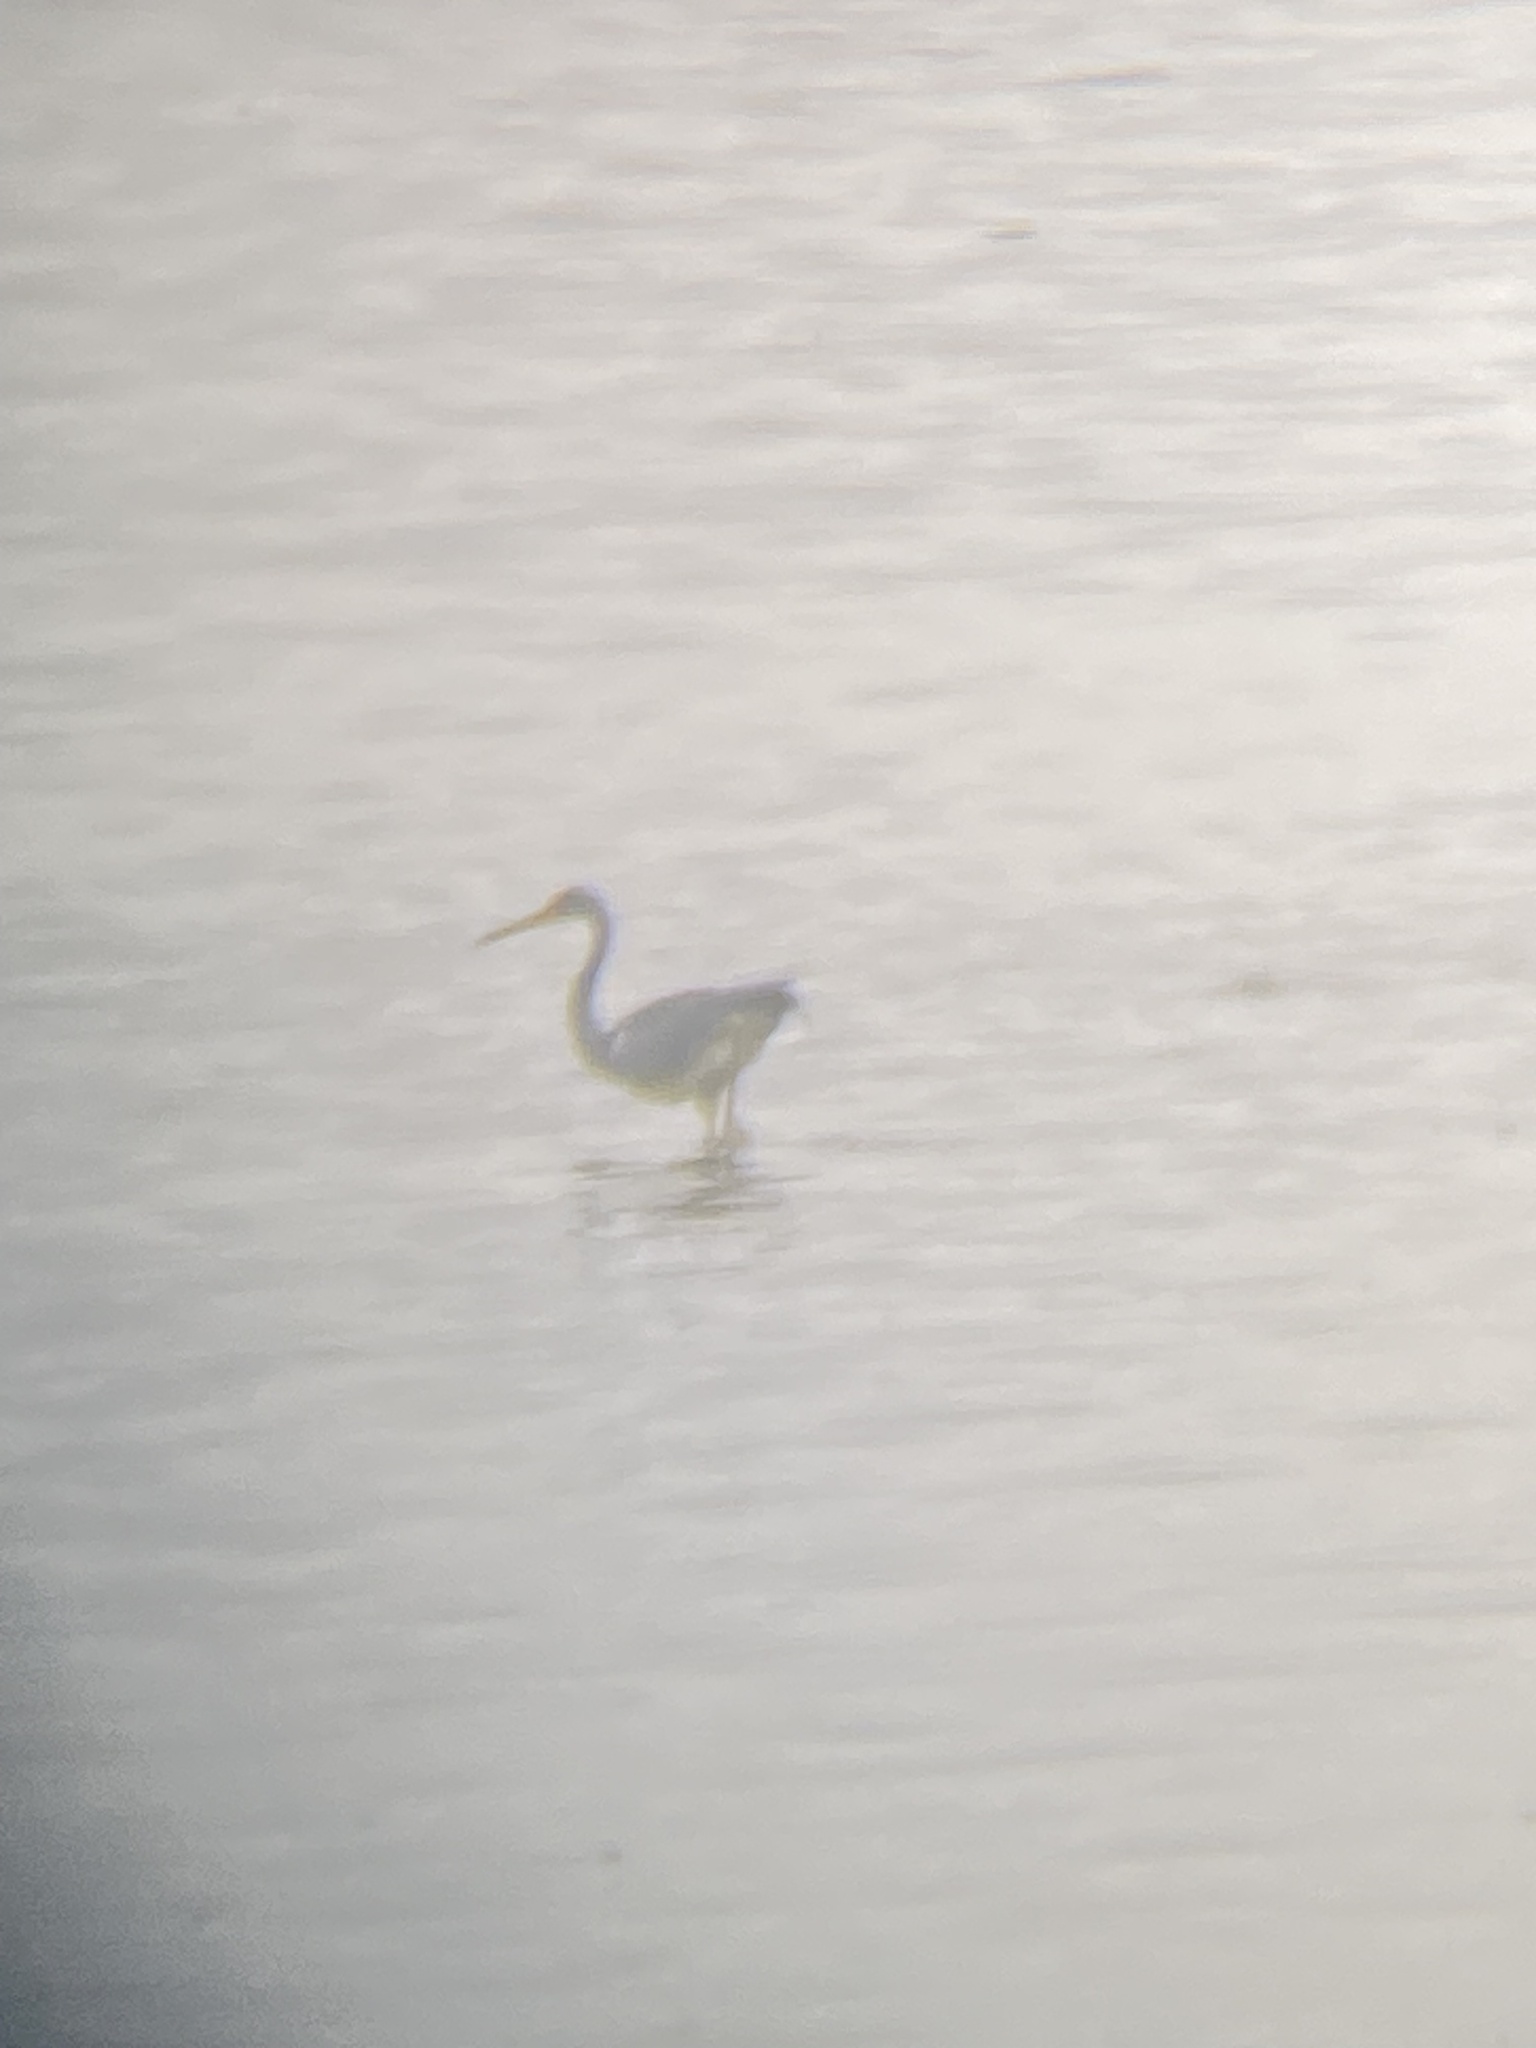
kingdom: Animalia
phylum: Chordata
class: Aves
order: Pelecaniformes
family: Ardeidae
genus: Egretta
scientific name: Egretta tricolor
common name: Tricolored heron
